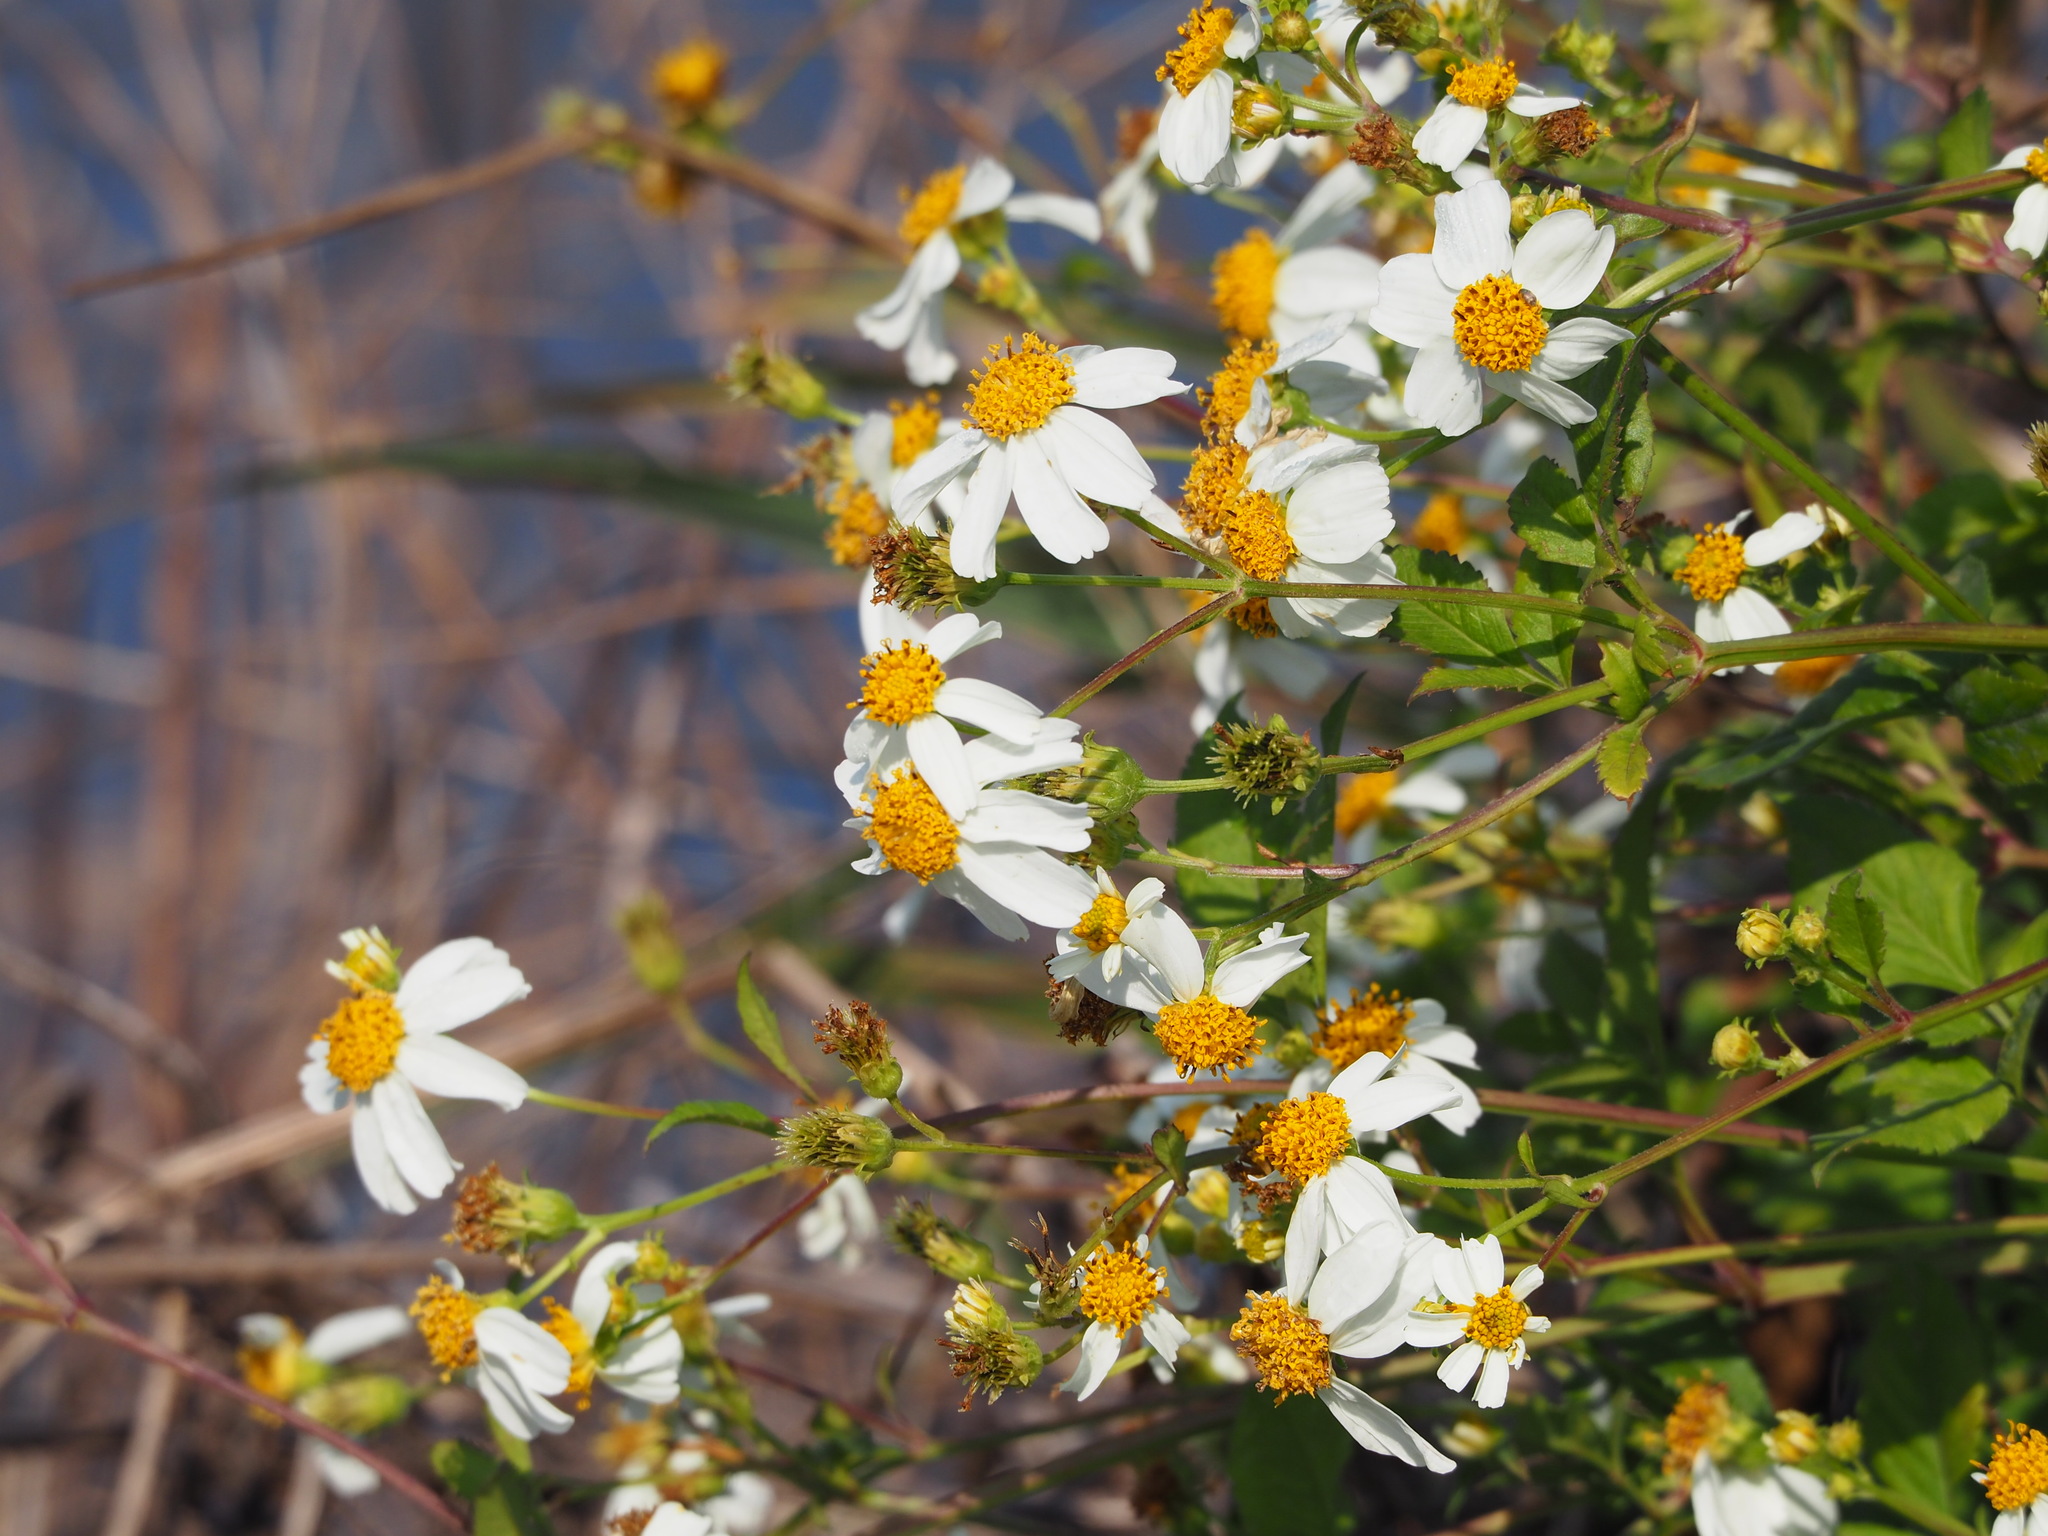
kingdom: Plantae
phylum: Tracheophyta
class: Magnoliopsida
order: Asterales
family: Asteraceae
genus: Bidens
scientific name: Bidens alba
